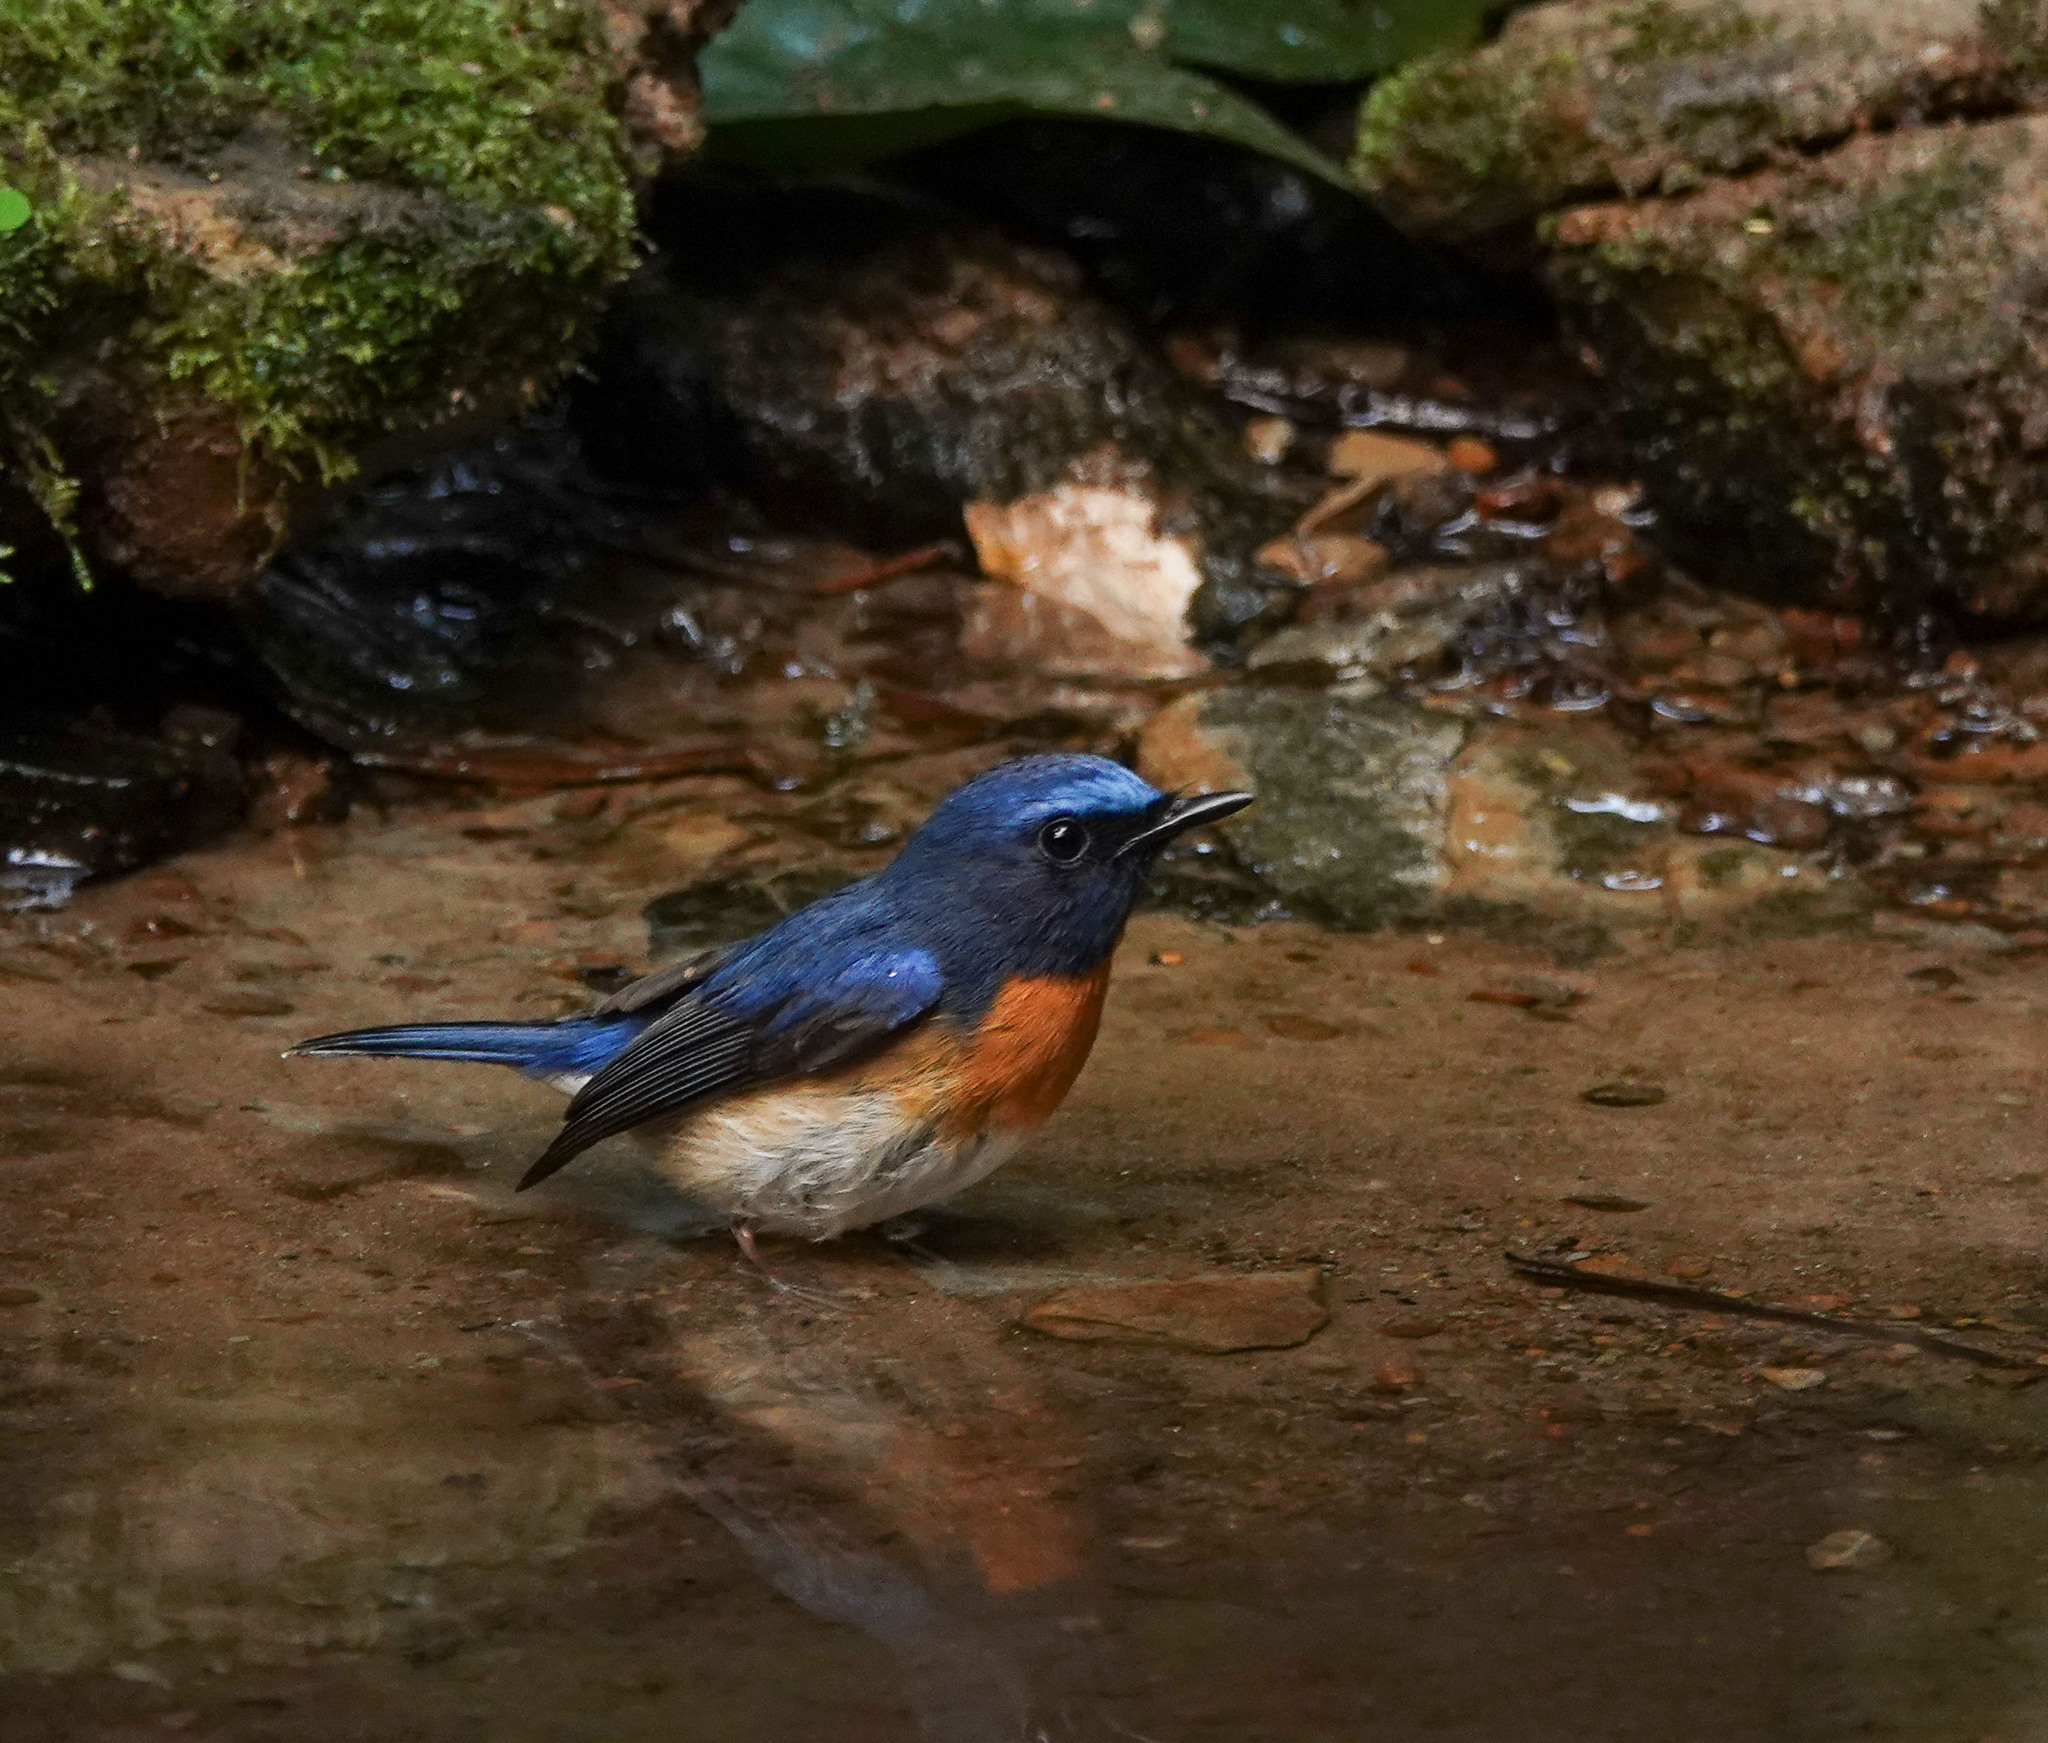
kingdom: Animalia
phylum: Chordata
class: Aves
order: Passeriformes
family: Muscicapidae
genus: Cyornis
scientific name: Cyornis rubeculoides
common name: Blue-throated blue flycatcher
